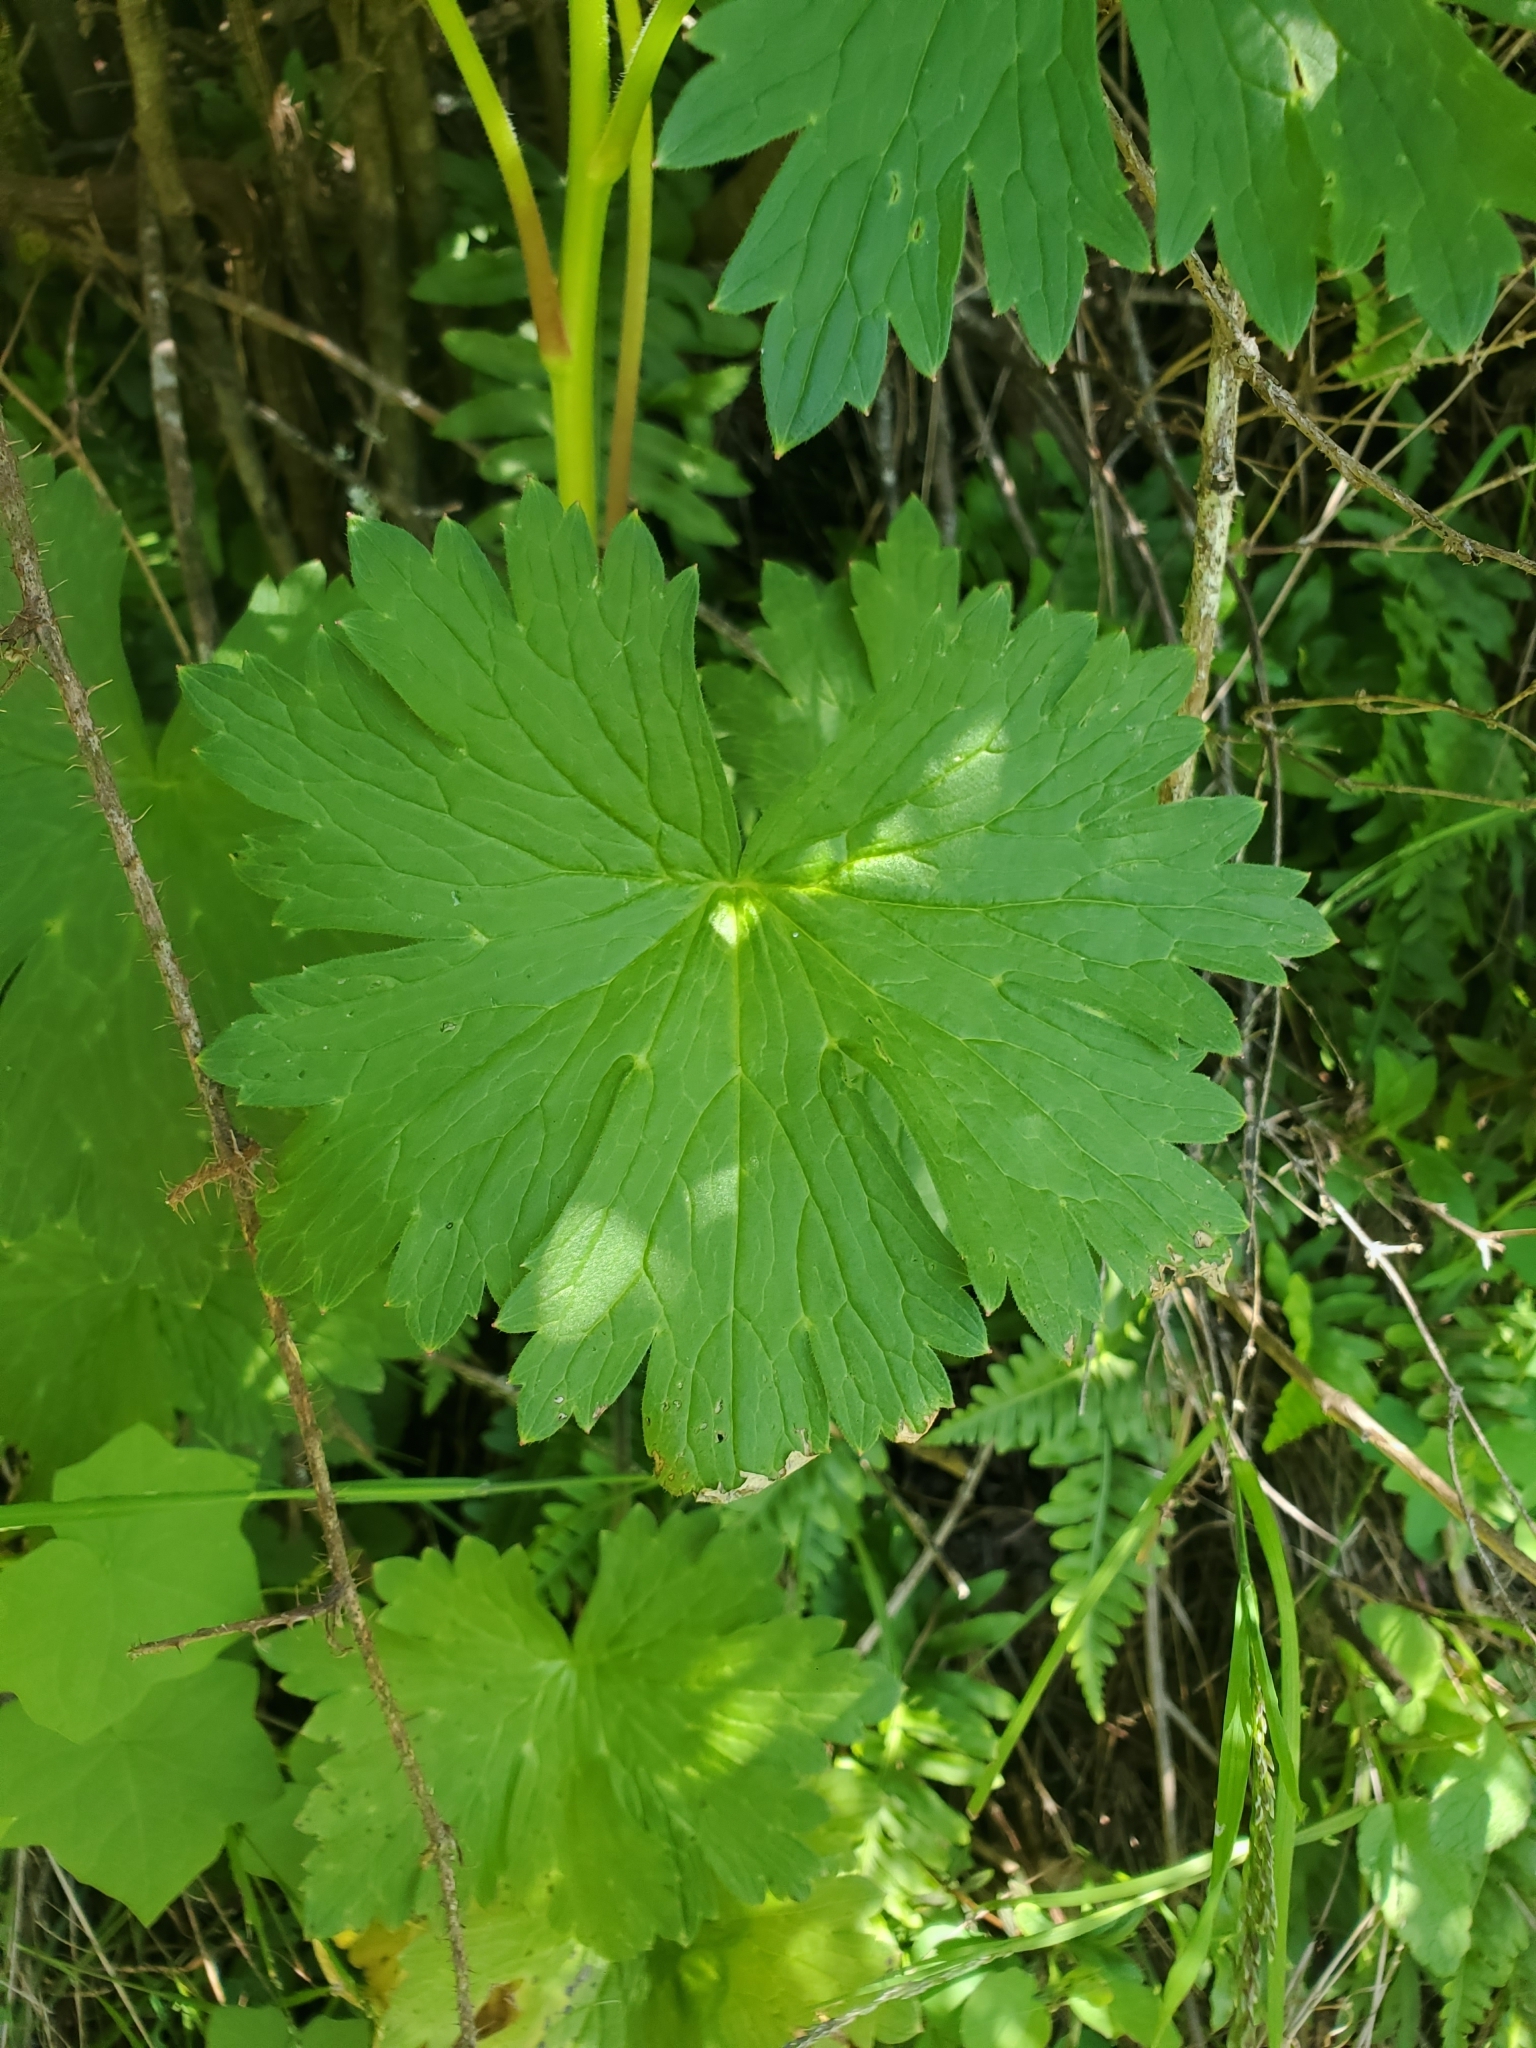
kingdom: Plantae
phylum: Tracheophyta
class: Magnoliopsida
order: Ranunculales
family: Ranunculaceae
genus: Delphinium
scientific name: Delphinium californicum
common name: California larkspur
